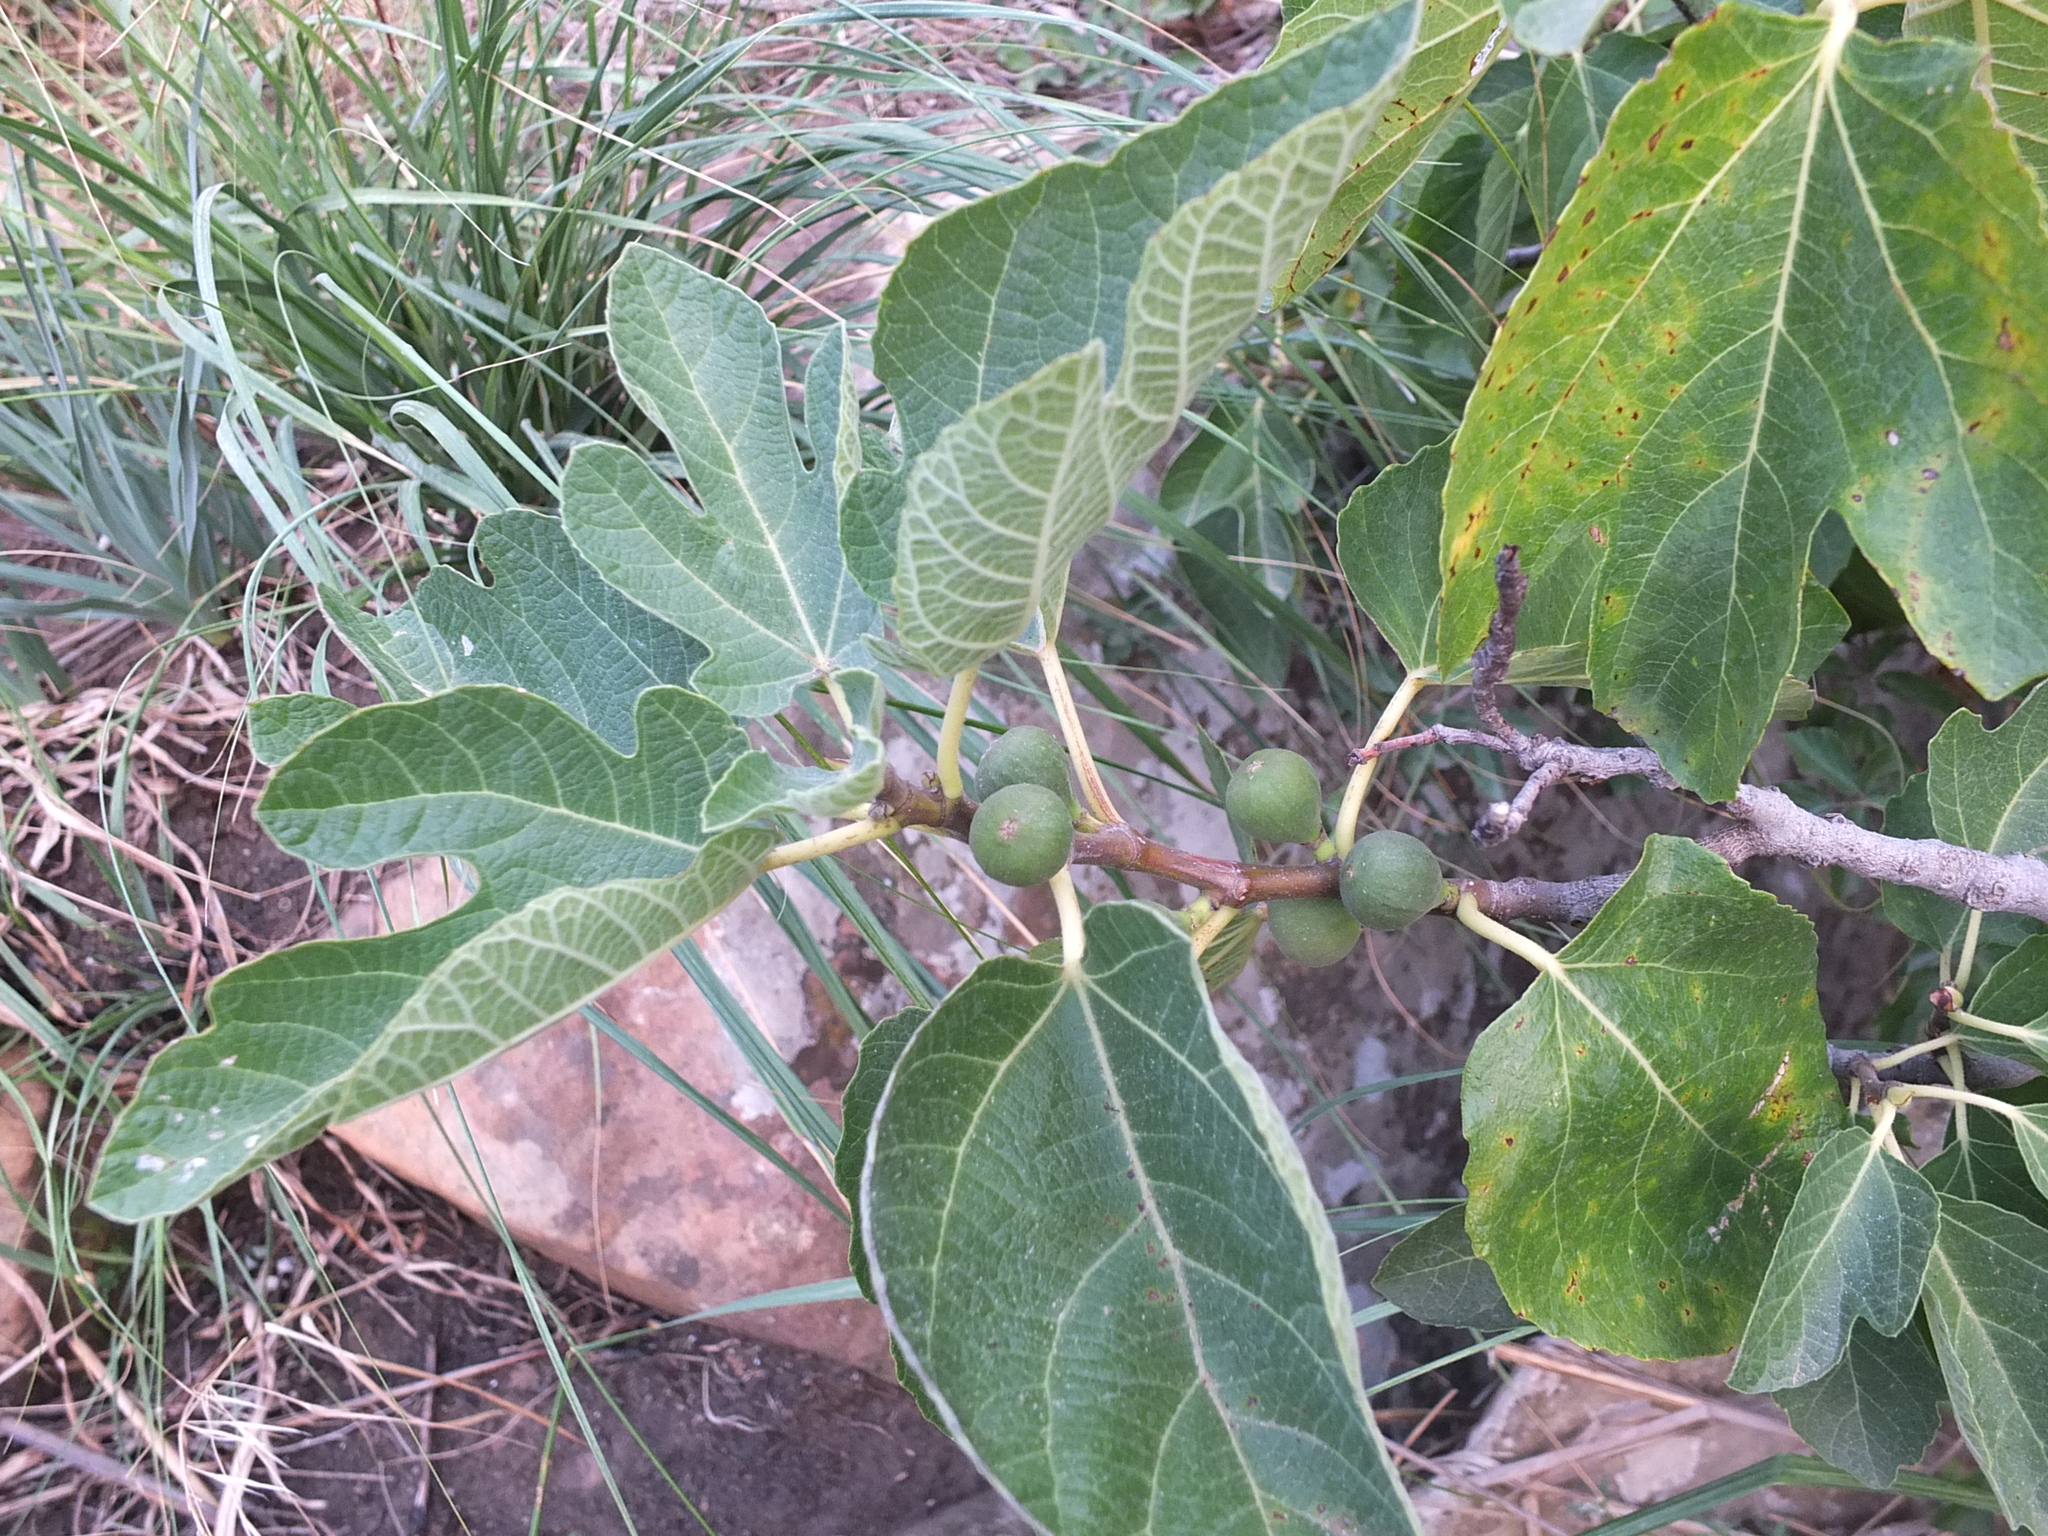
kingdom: Plantae
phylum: Tracheophyta
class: Magnoliopsida
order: Rosales
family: Moraceae
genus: Ficus
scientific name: Ficus carica
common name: Fig
